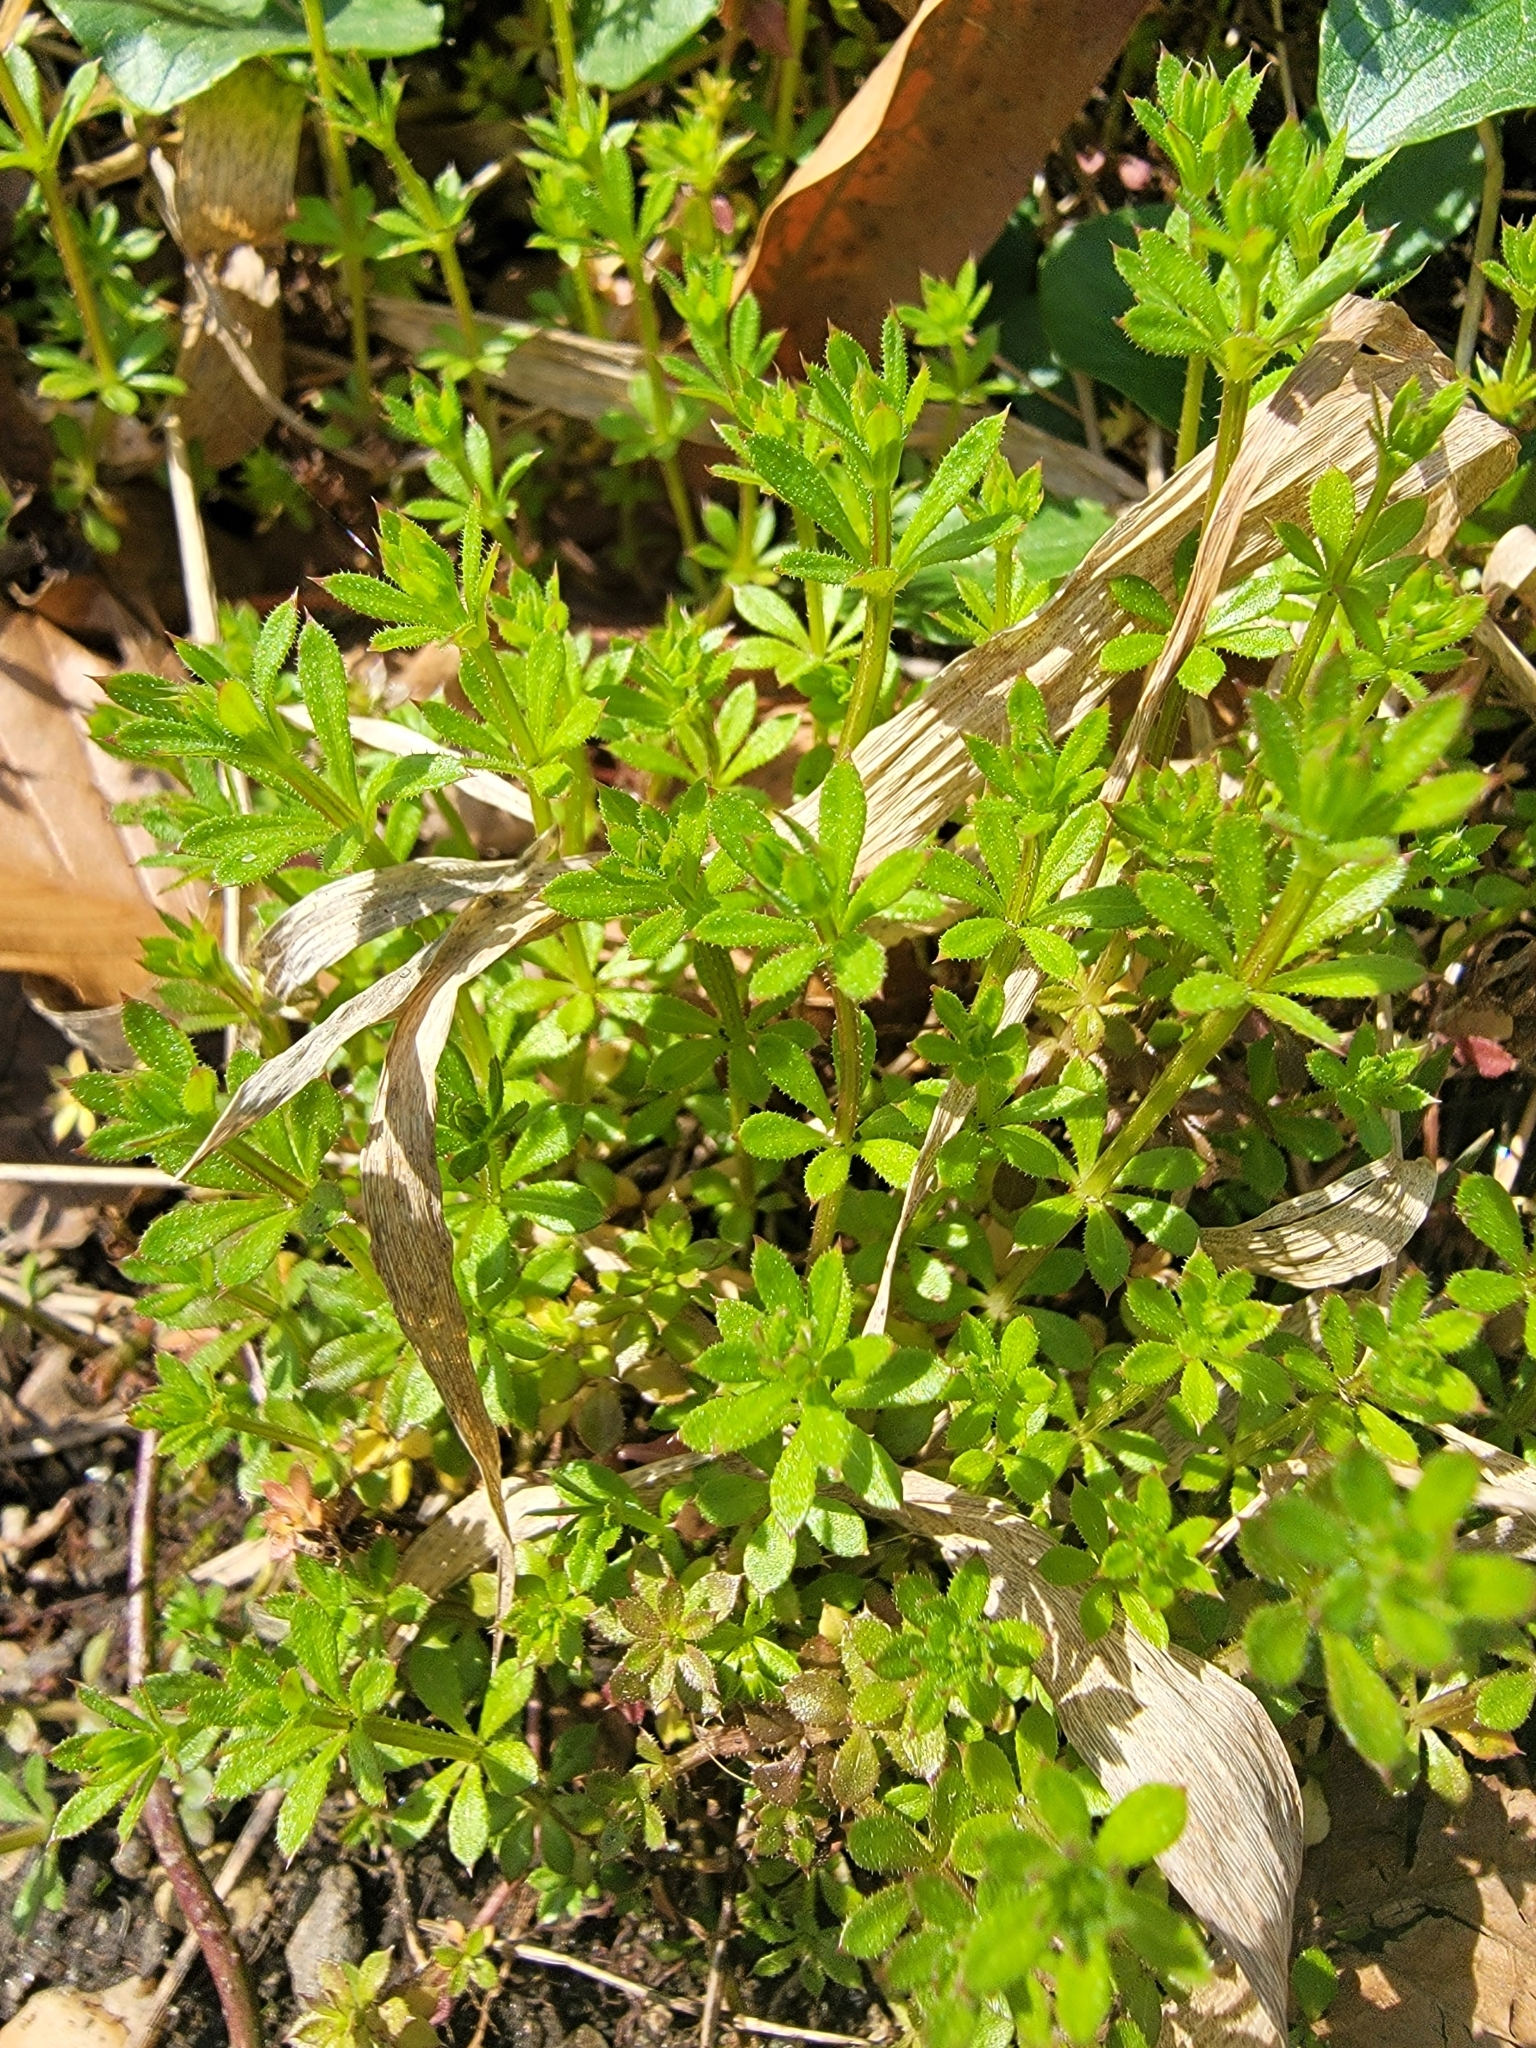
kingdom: Plantae
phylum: Tracheophyta
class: Magnoliopsida
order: Gentianales
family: Rubiaceae
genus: Galium
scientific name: Galium aparine
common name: Cleavers
